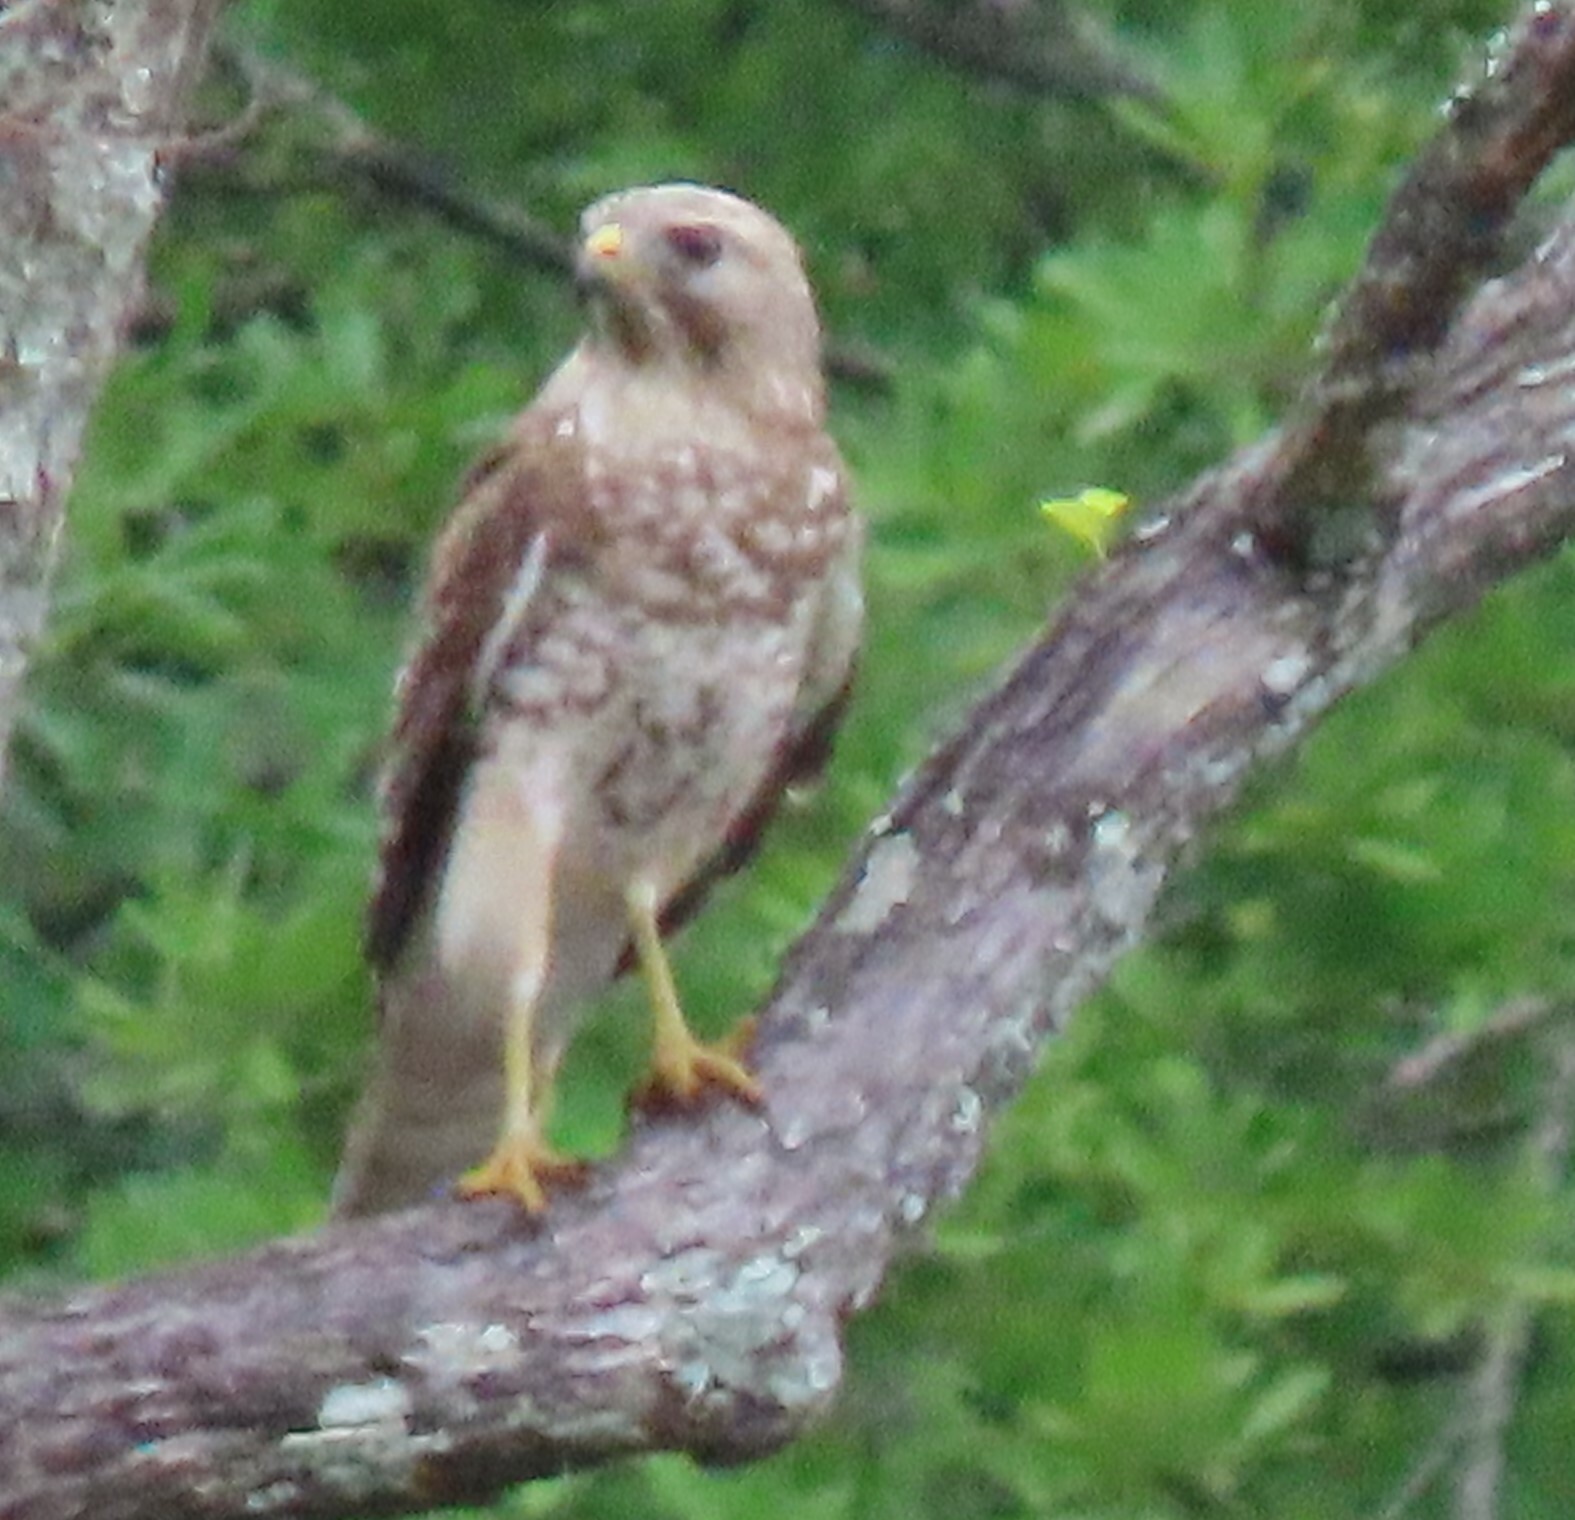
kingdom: Animalia
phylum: Chordata
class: Aves
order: Accipitriformes
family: Accipitridae
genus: Buteo
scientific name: Buteo lineatus
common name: Red-shouldered hawk
